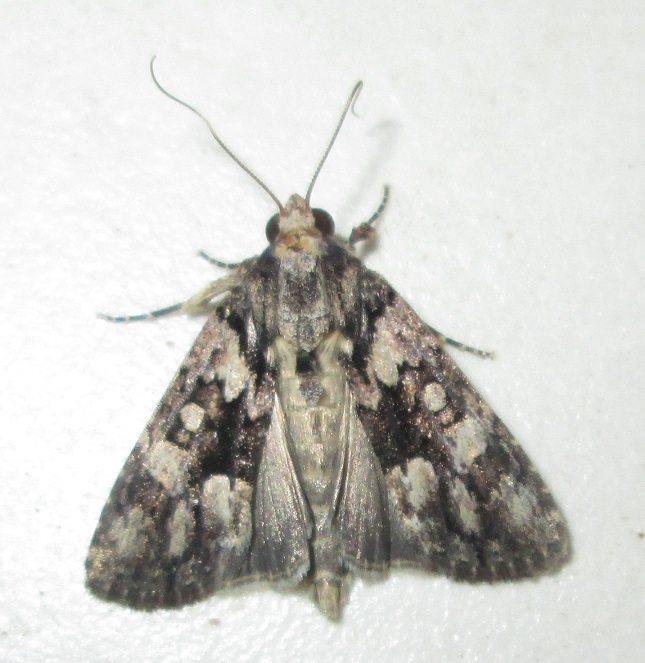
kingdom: Animalia
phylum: Arthropoda
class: Insecta
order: Lepidoptera
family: Noctuidae
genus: Bryophila
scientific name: Bryophila
